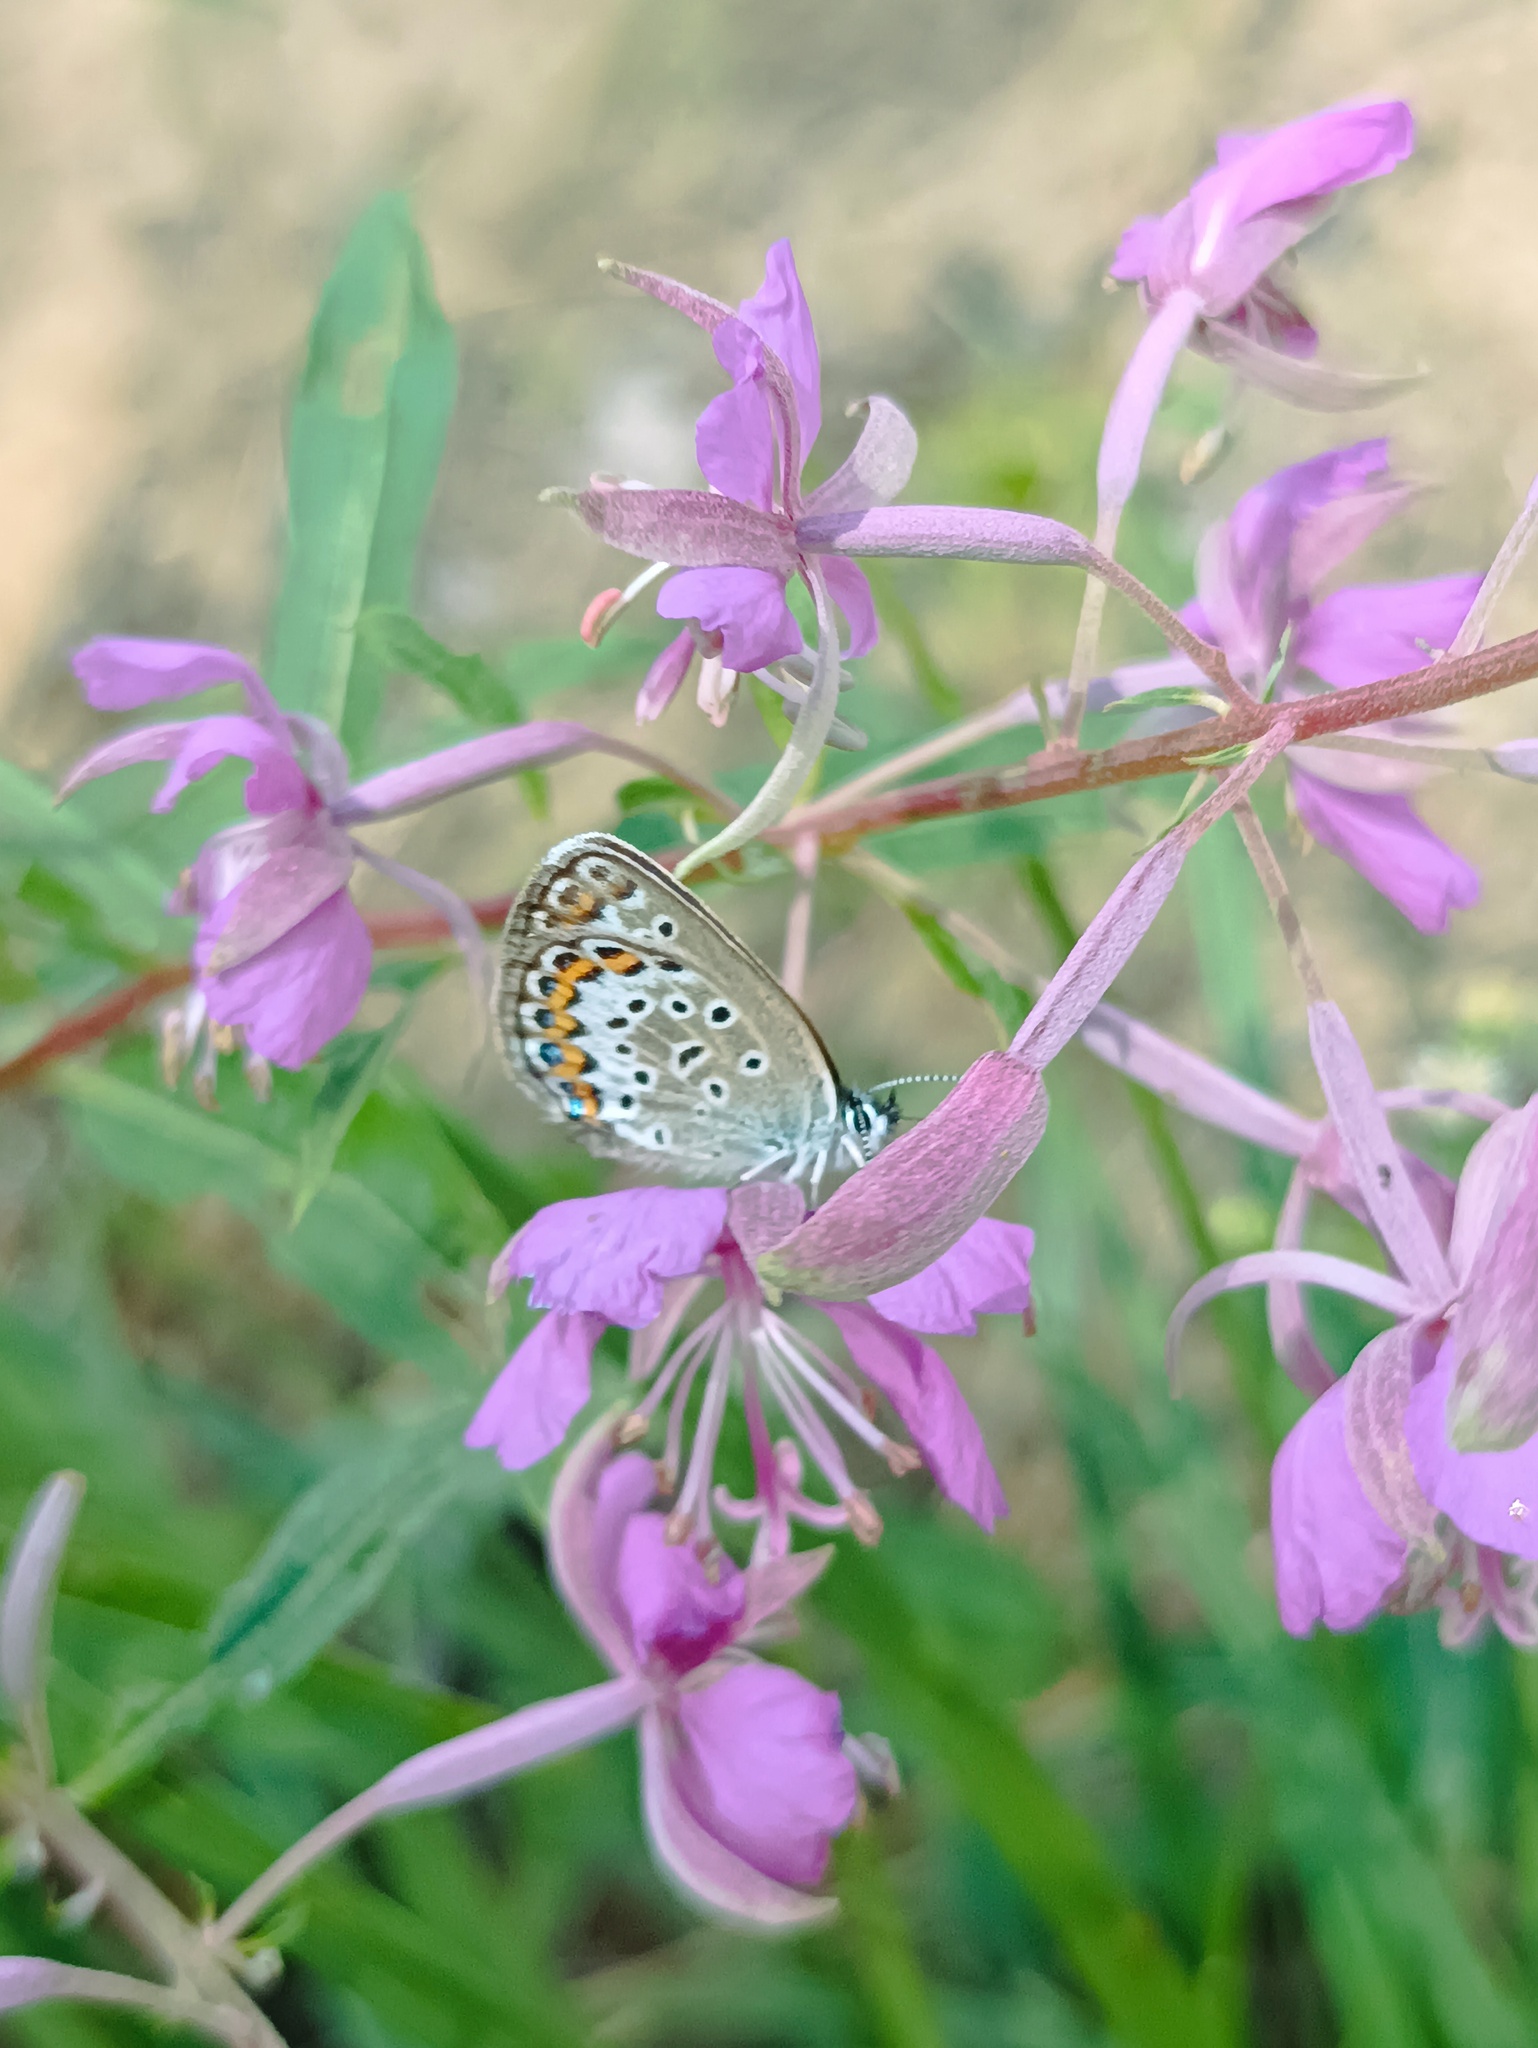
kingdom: Animalia
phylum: Arthropoda
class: Insecta
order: Lepidoptera
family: Lycaenidae
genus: Plebejus
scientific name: Plebejus argus
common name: Silver-studded blue
